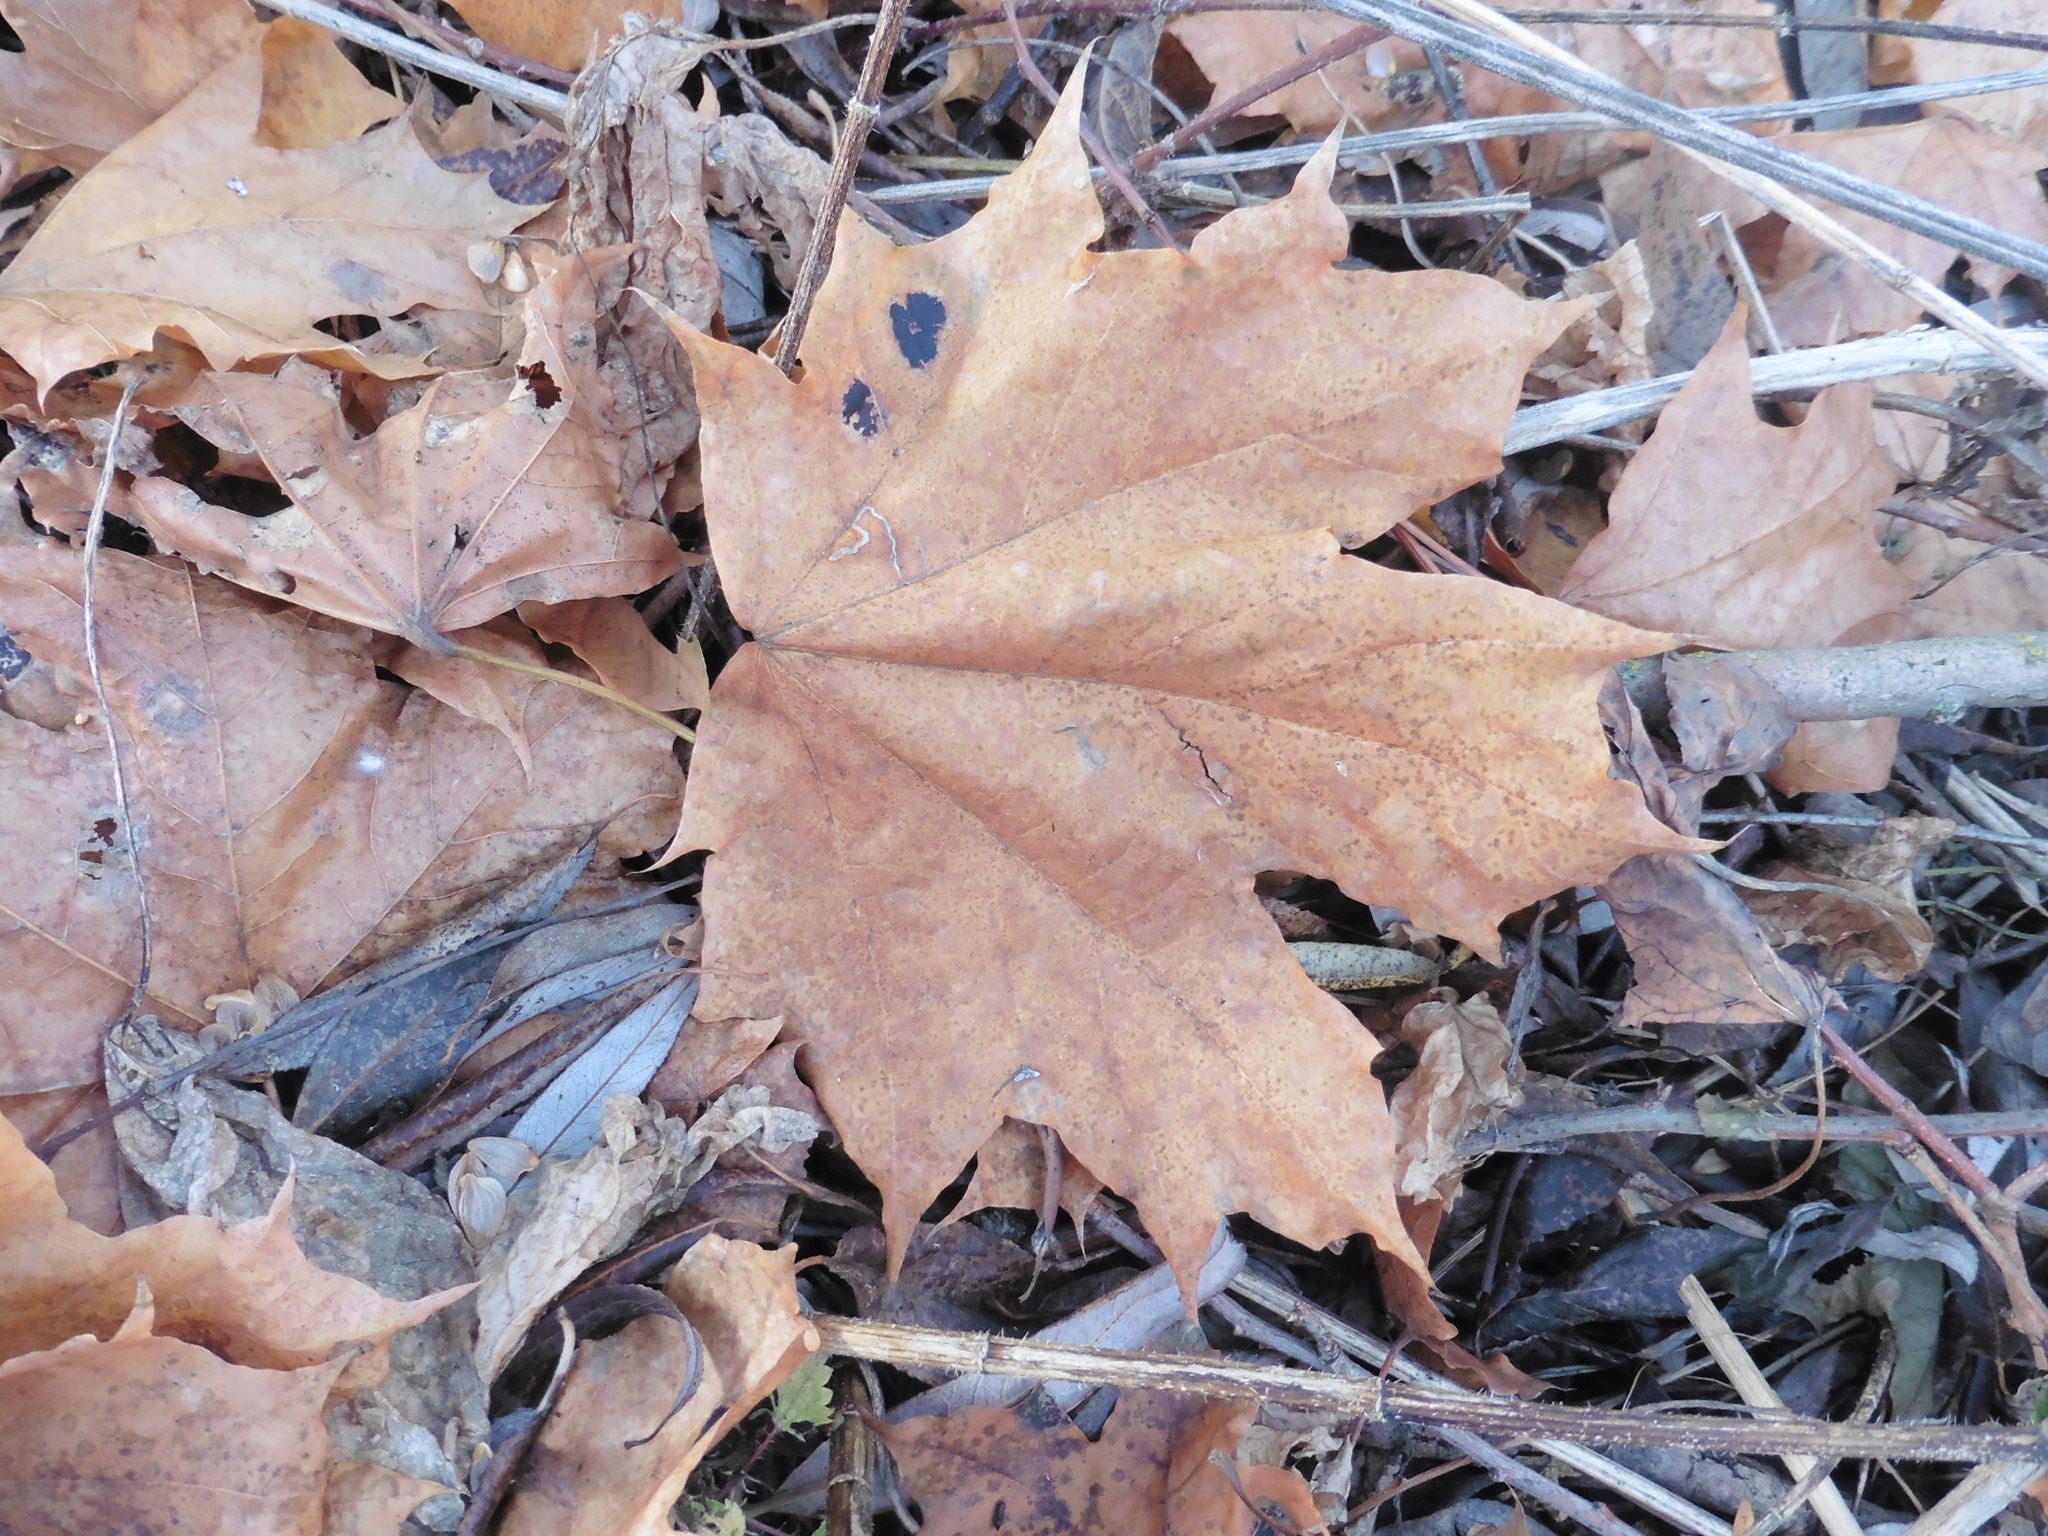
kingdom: Plantae
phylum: Tracheophyta
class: Magnoliopsida
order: Sapindales
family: Sapindaceae
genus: Acer
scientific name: Acer platanoides
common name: Norway maple
